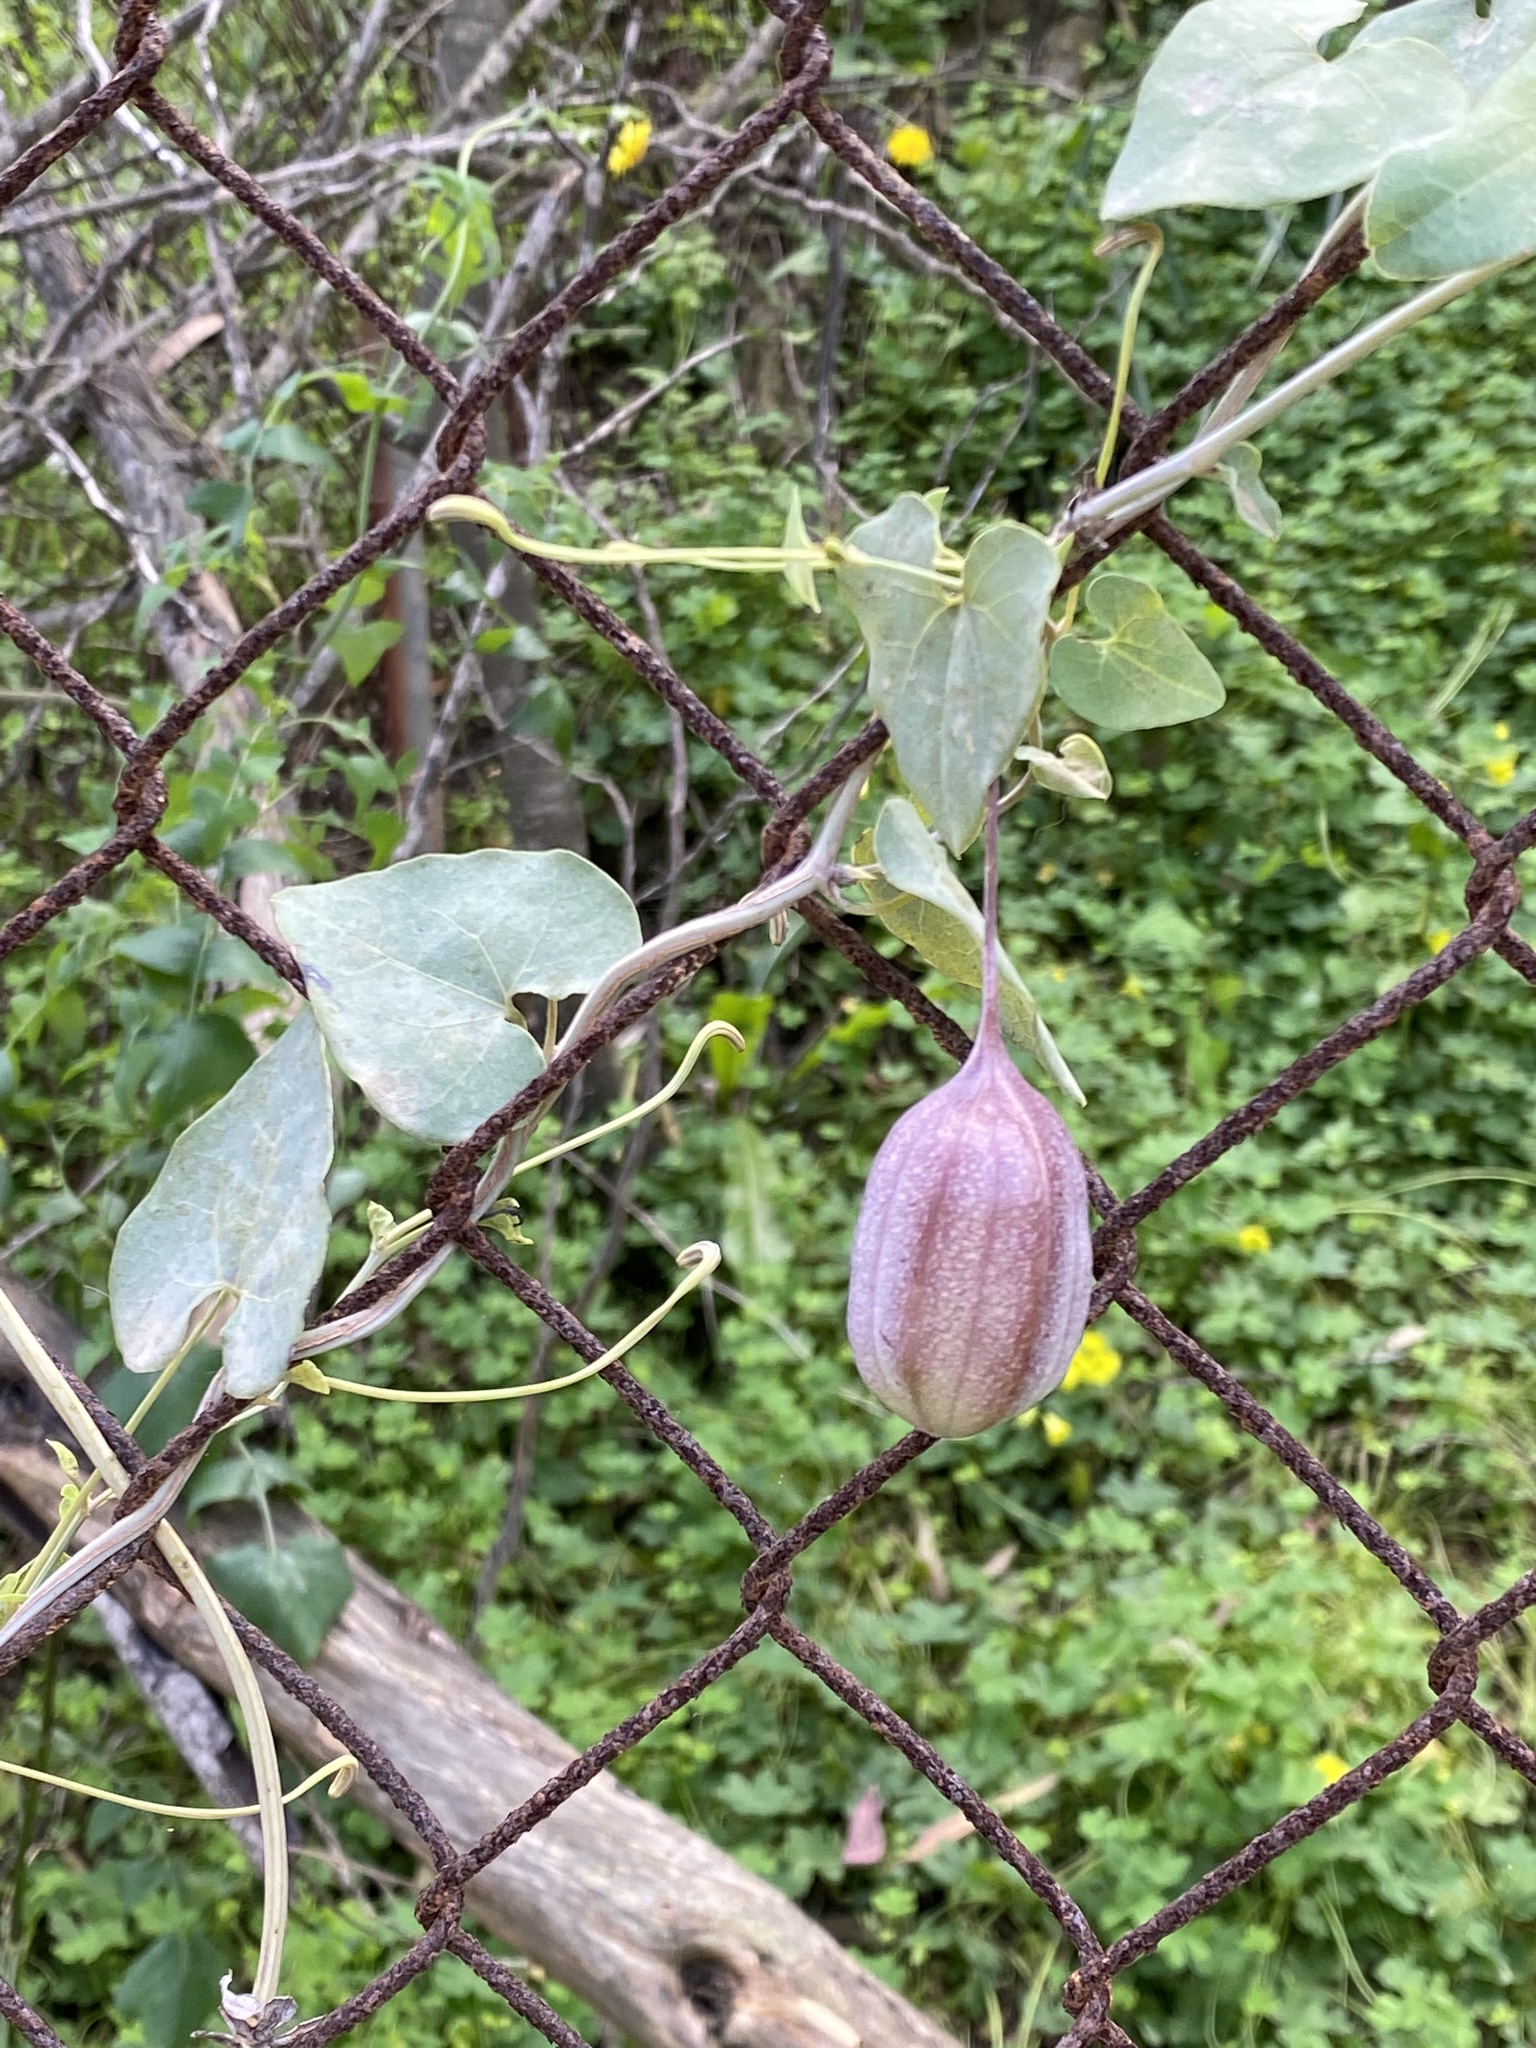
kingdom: Plantae
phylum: Tracheophyta
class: Magnoliopsida
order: Piperales
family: Aristolochiaceae
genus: Aristolochia
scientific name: Aristolochia baetica
